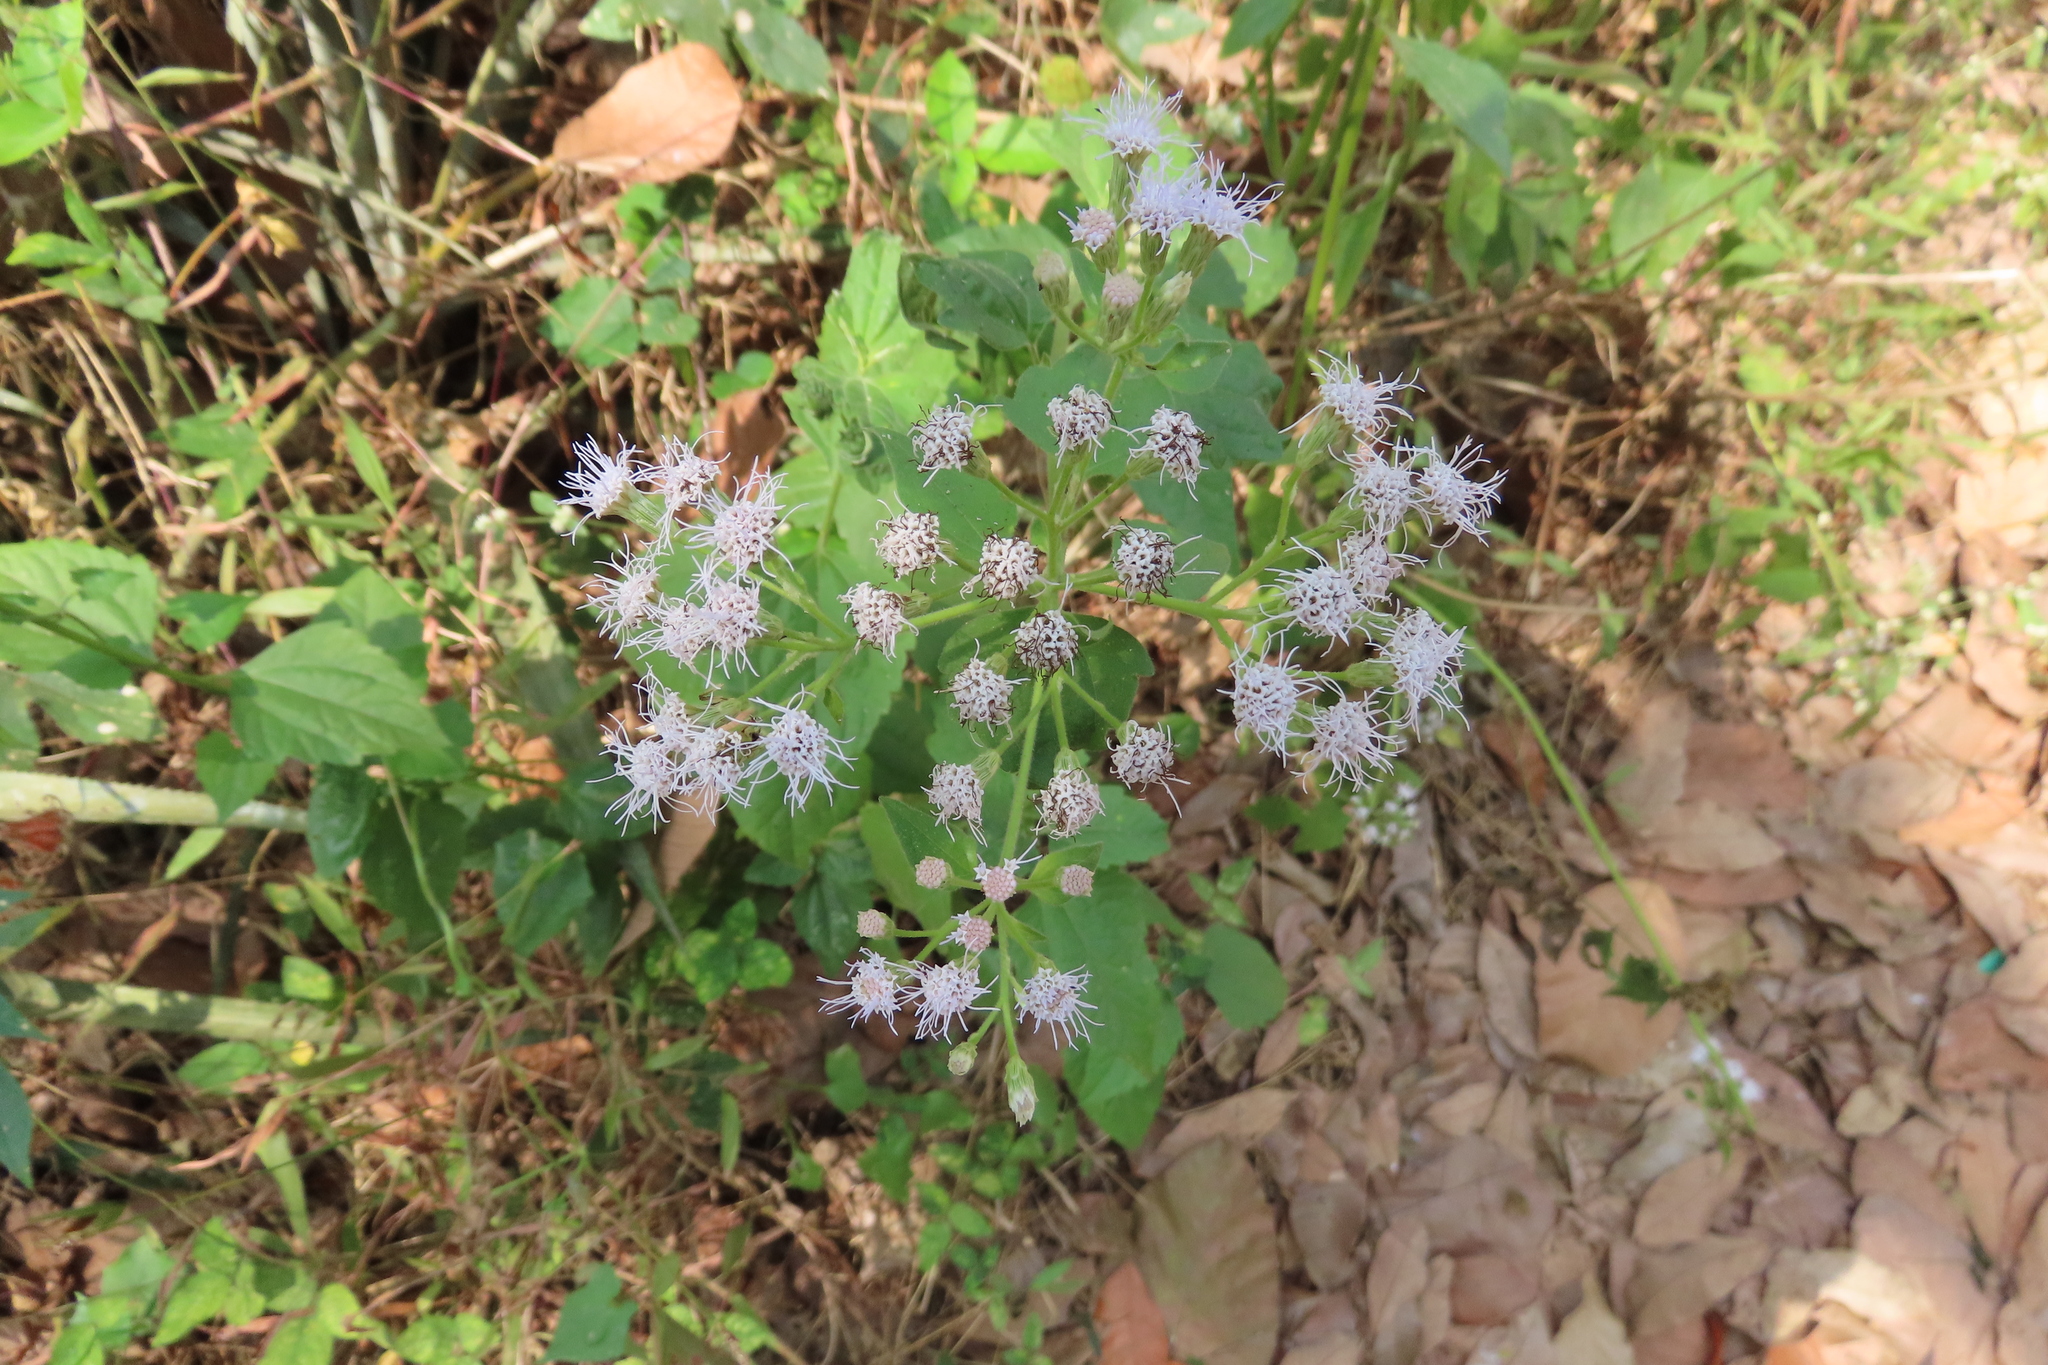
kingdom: Plantae
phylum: Tracheophyta
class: Magnoliopsida
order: Asterales
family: Asteraceae
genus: Chromolaena
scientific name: Chromolaena odorata
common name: Siamweed
